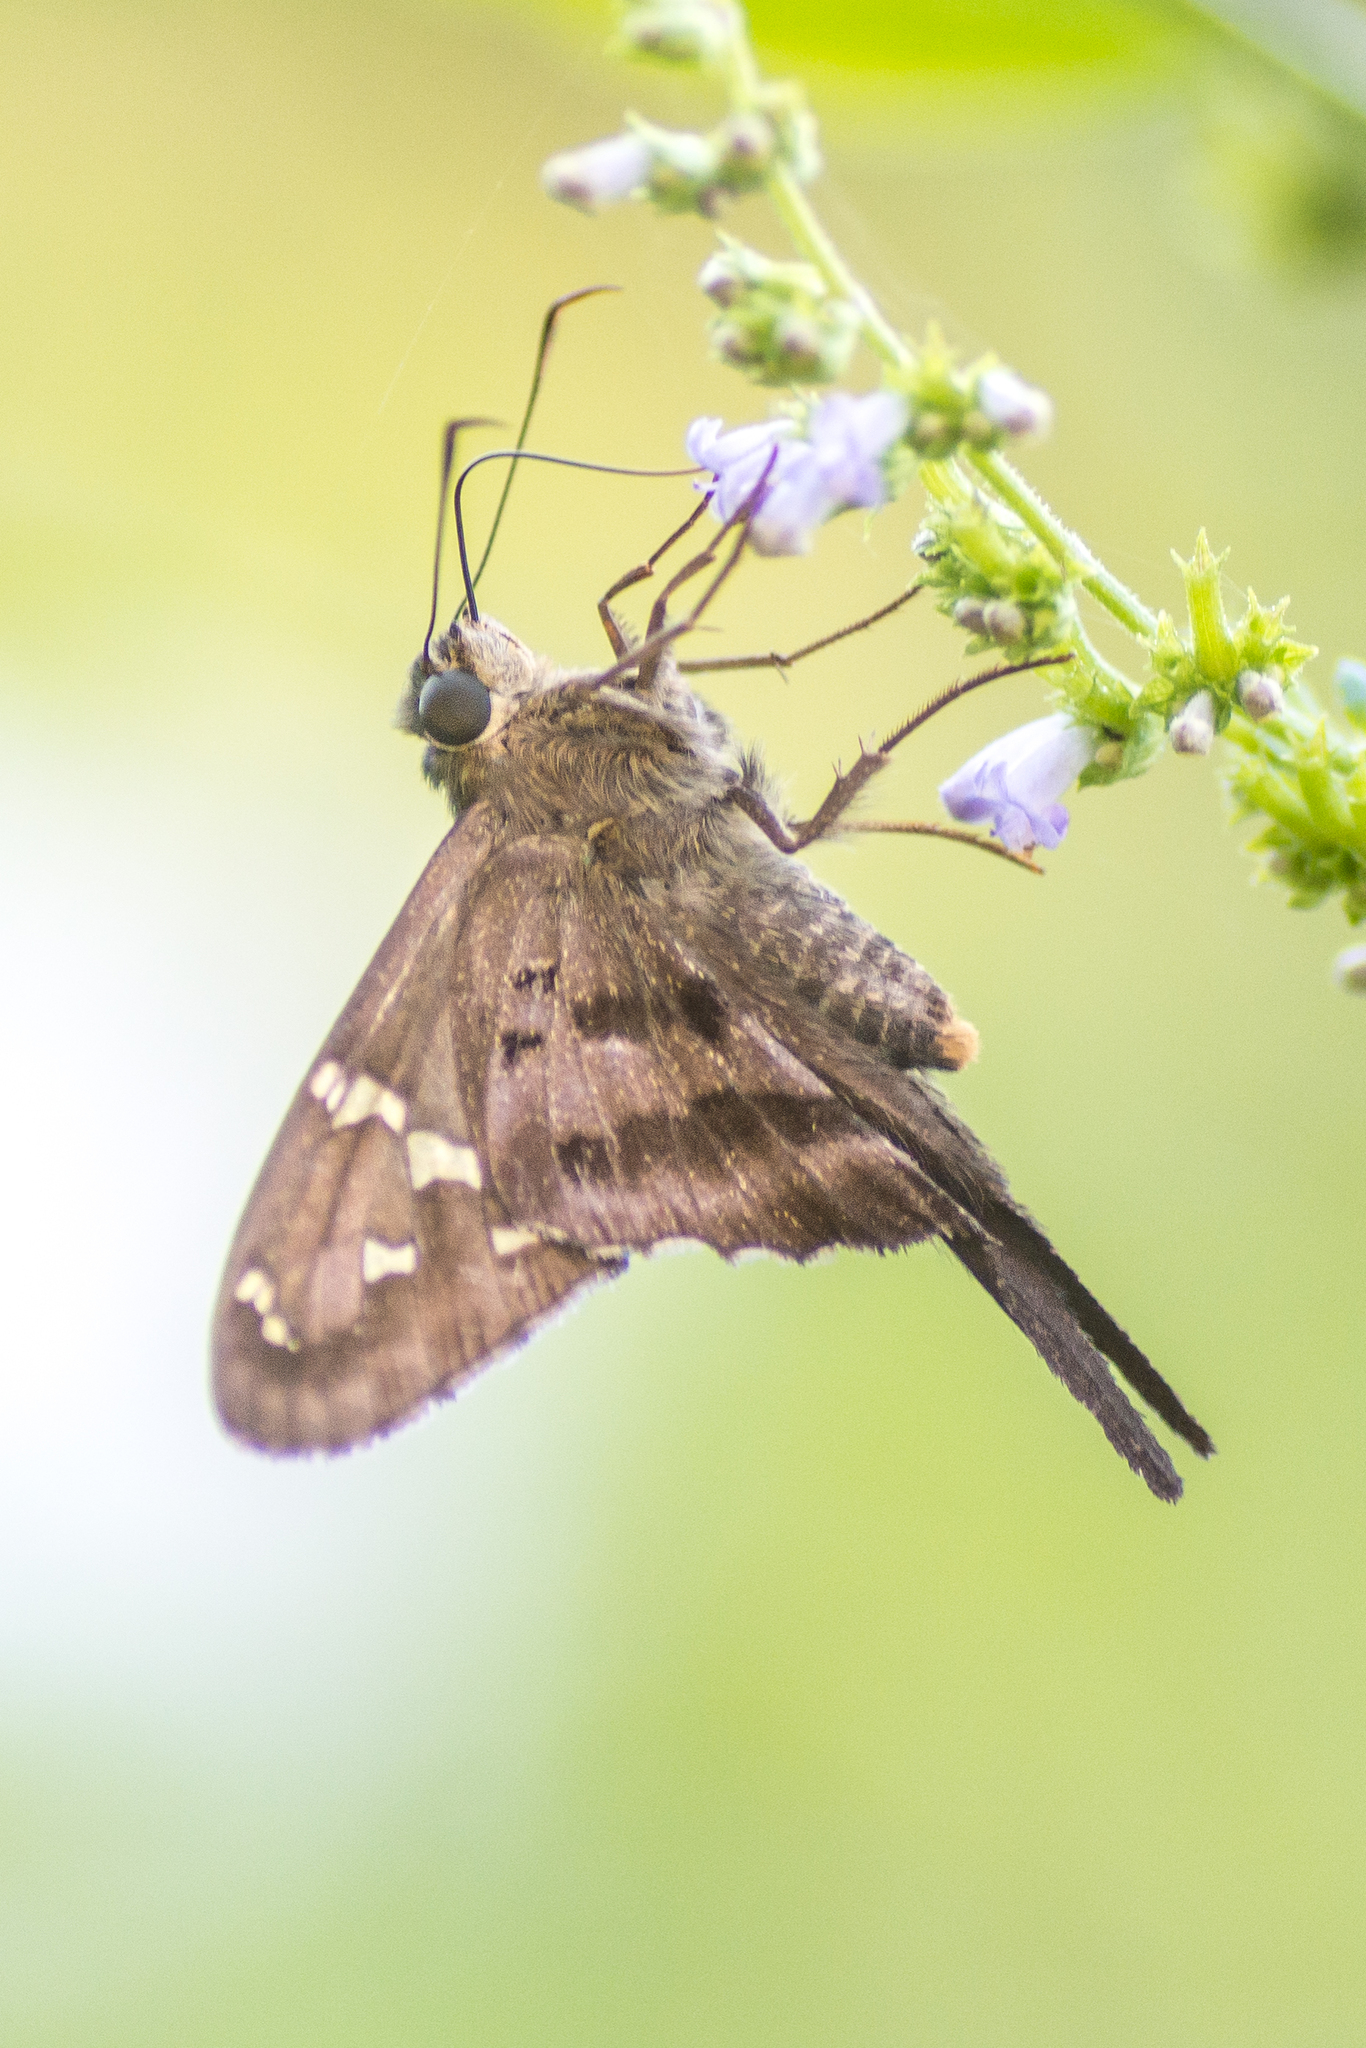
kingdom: Animalia
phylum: Arthropoda
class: Insecta
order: Lepidoptera
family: Hesperiidae
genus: Urbanus
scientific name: Urbanus proteus
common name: Long-tailed skipper
